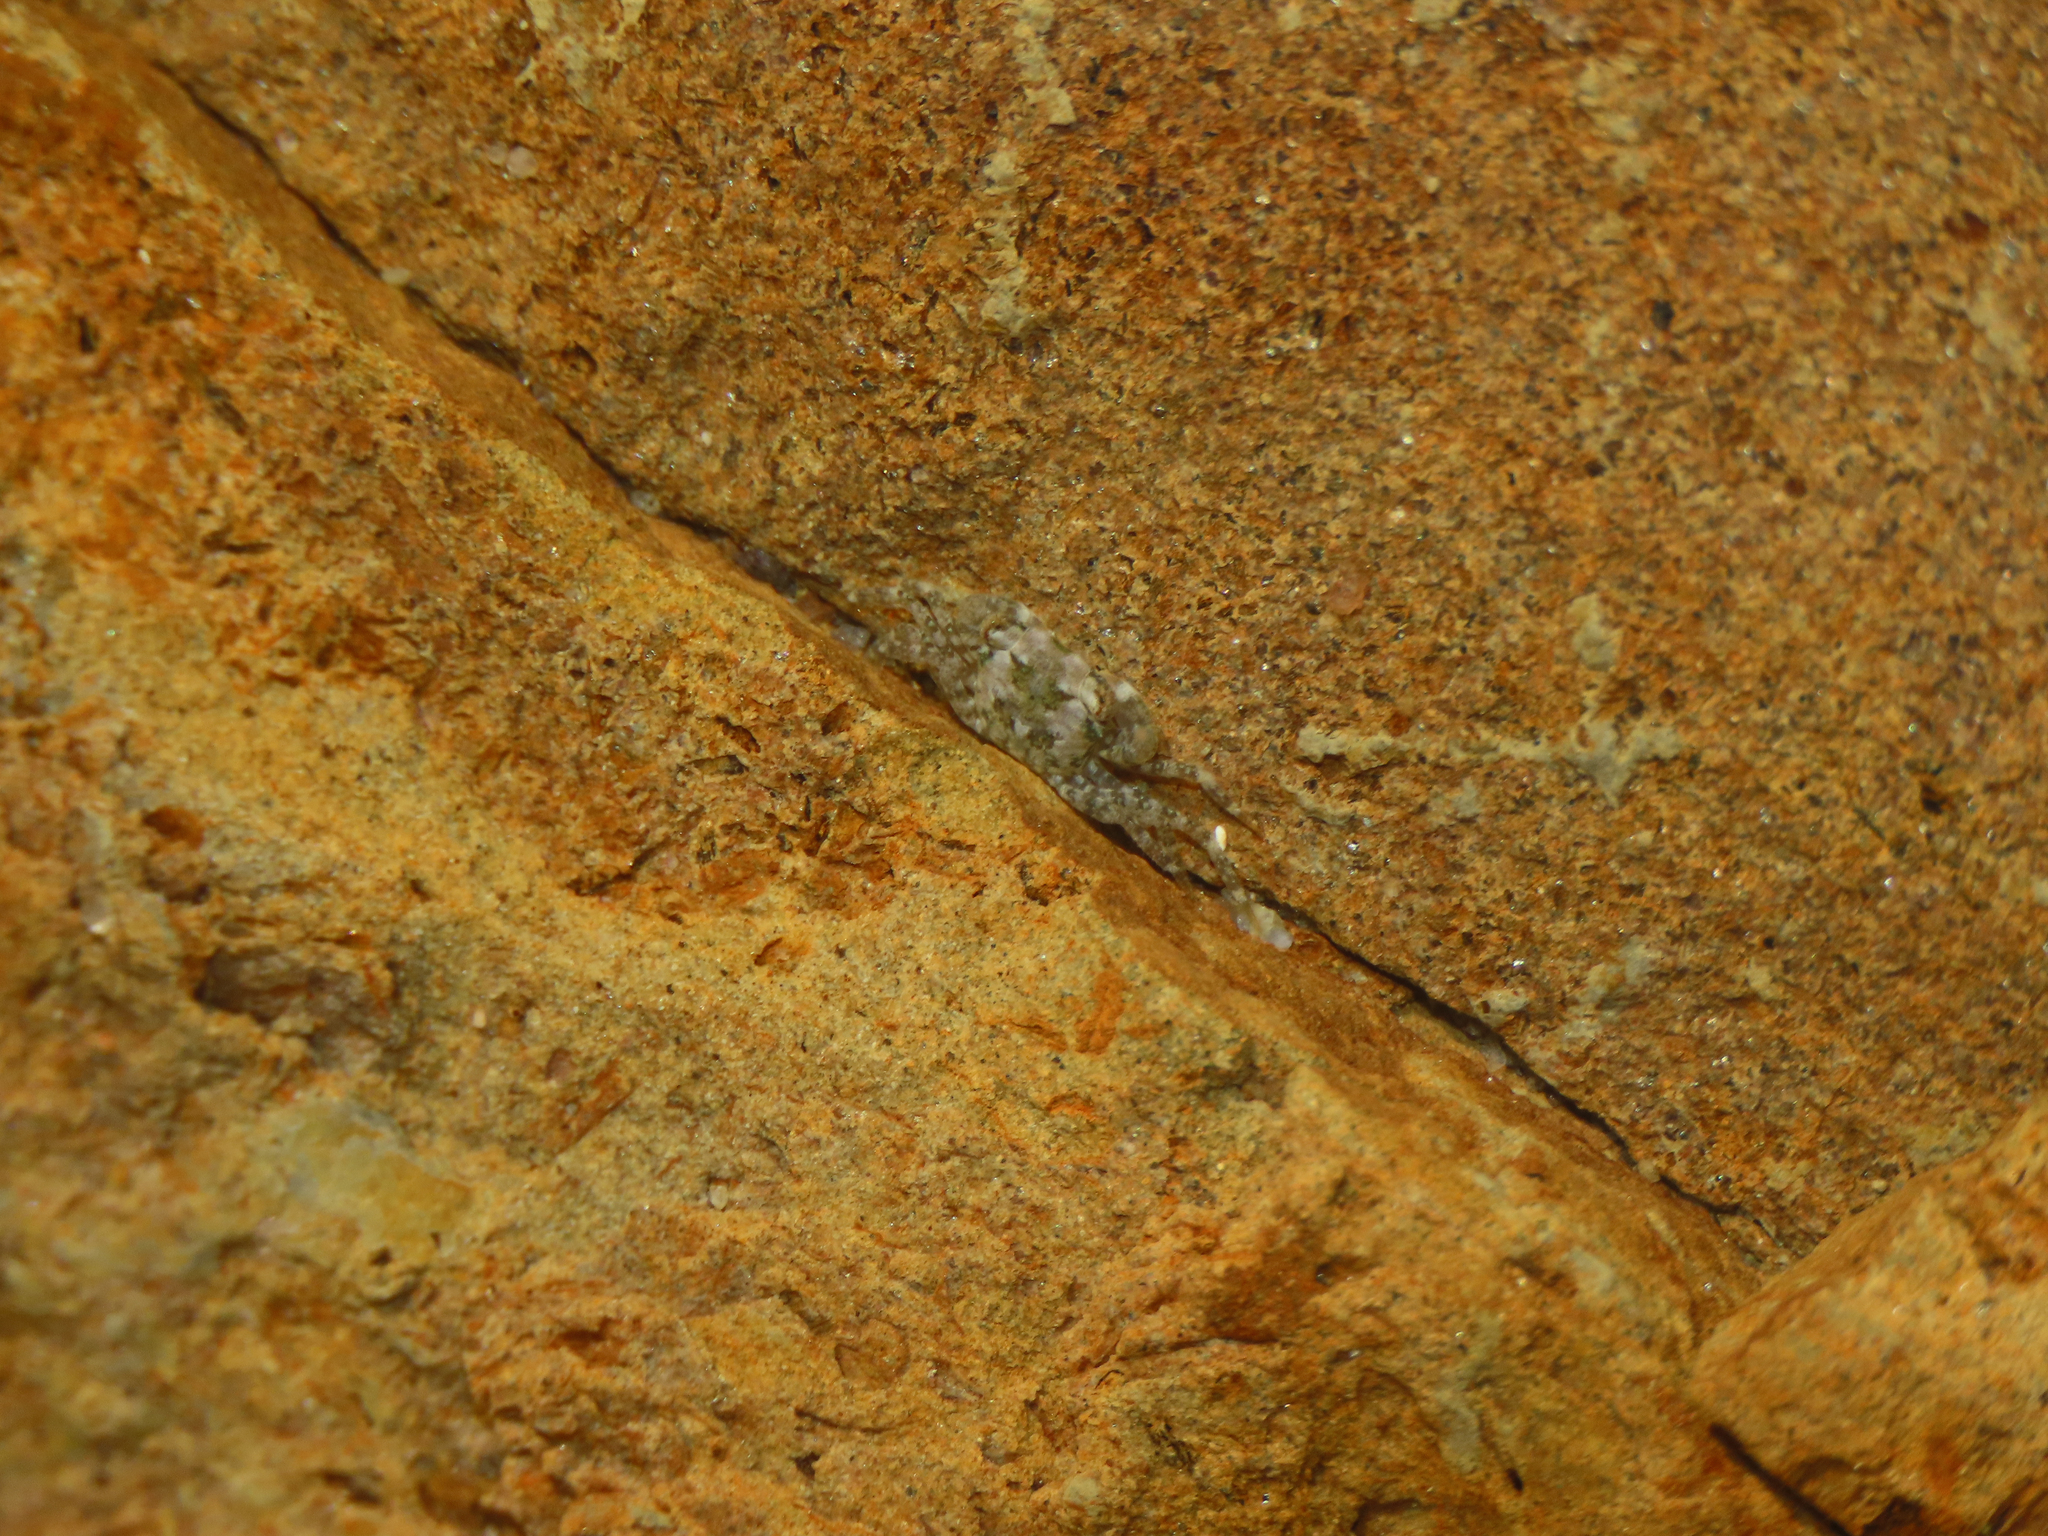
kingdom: Animalia
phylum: Arthropoda
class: Malacostraca
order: Decapoda
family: Grapsidae
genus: Pachygrapsus
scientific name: Pachygrapsus crassipes
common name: Striped shore crab
